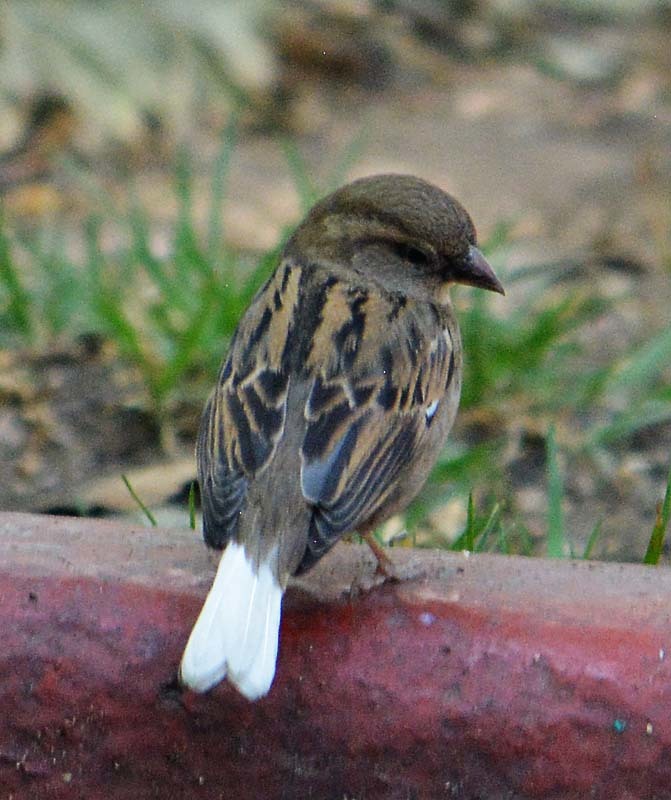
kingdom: Animalia
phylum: Chordata
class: Aves
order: Passeriformes
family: Passeridae
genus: Passer
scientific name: Passer domesticus
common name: House sparrow
